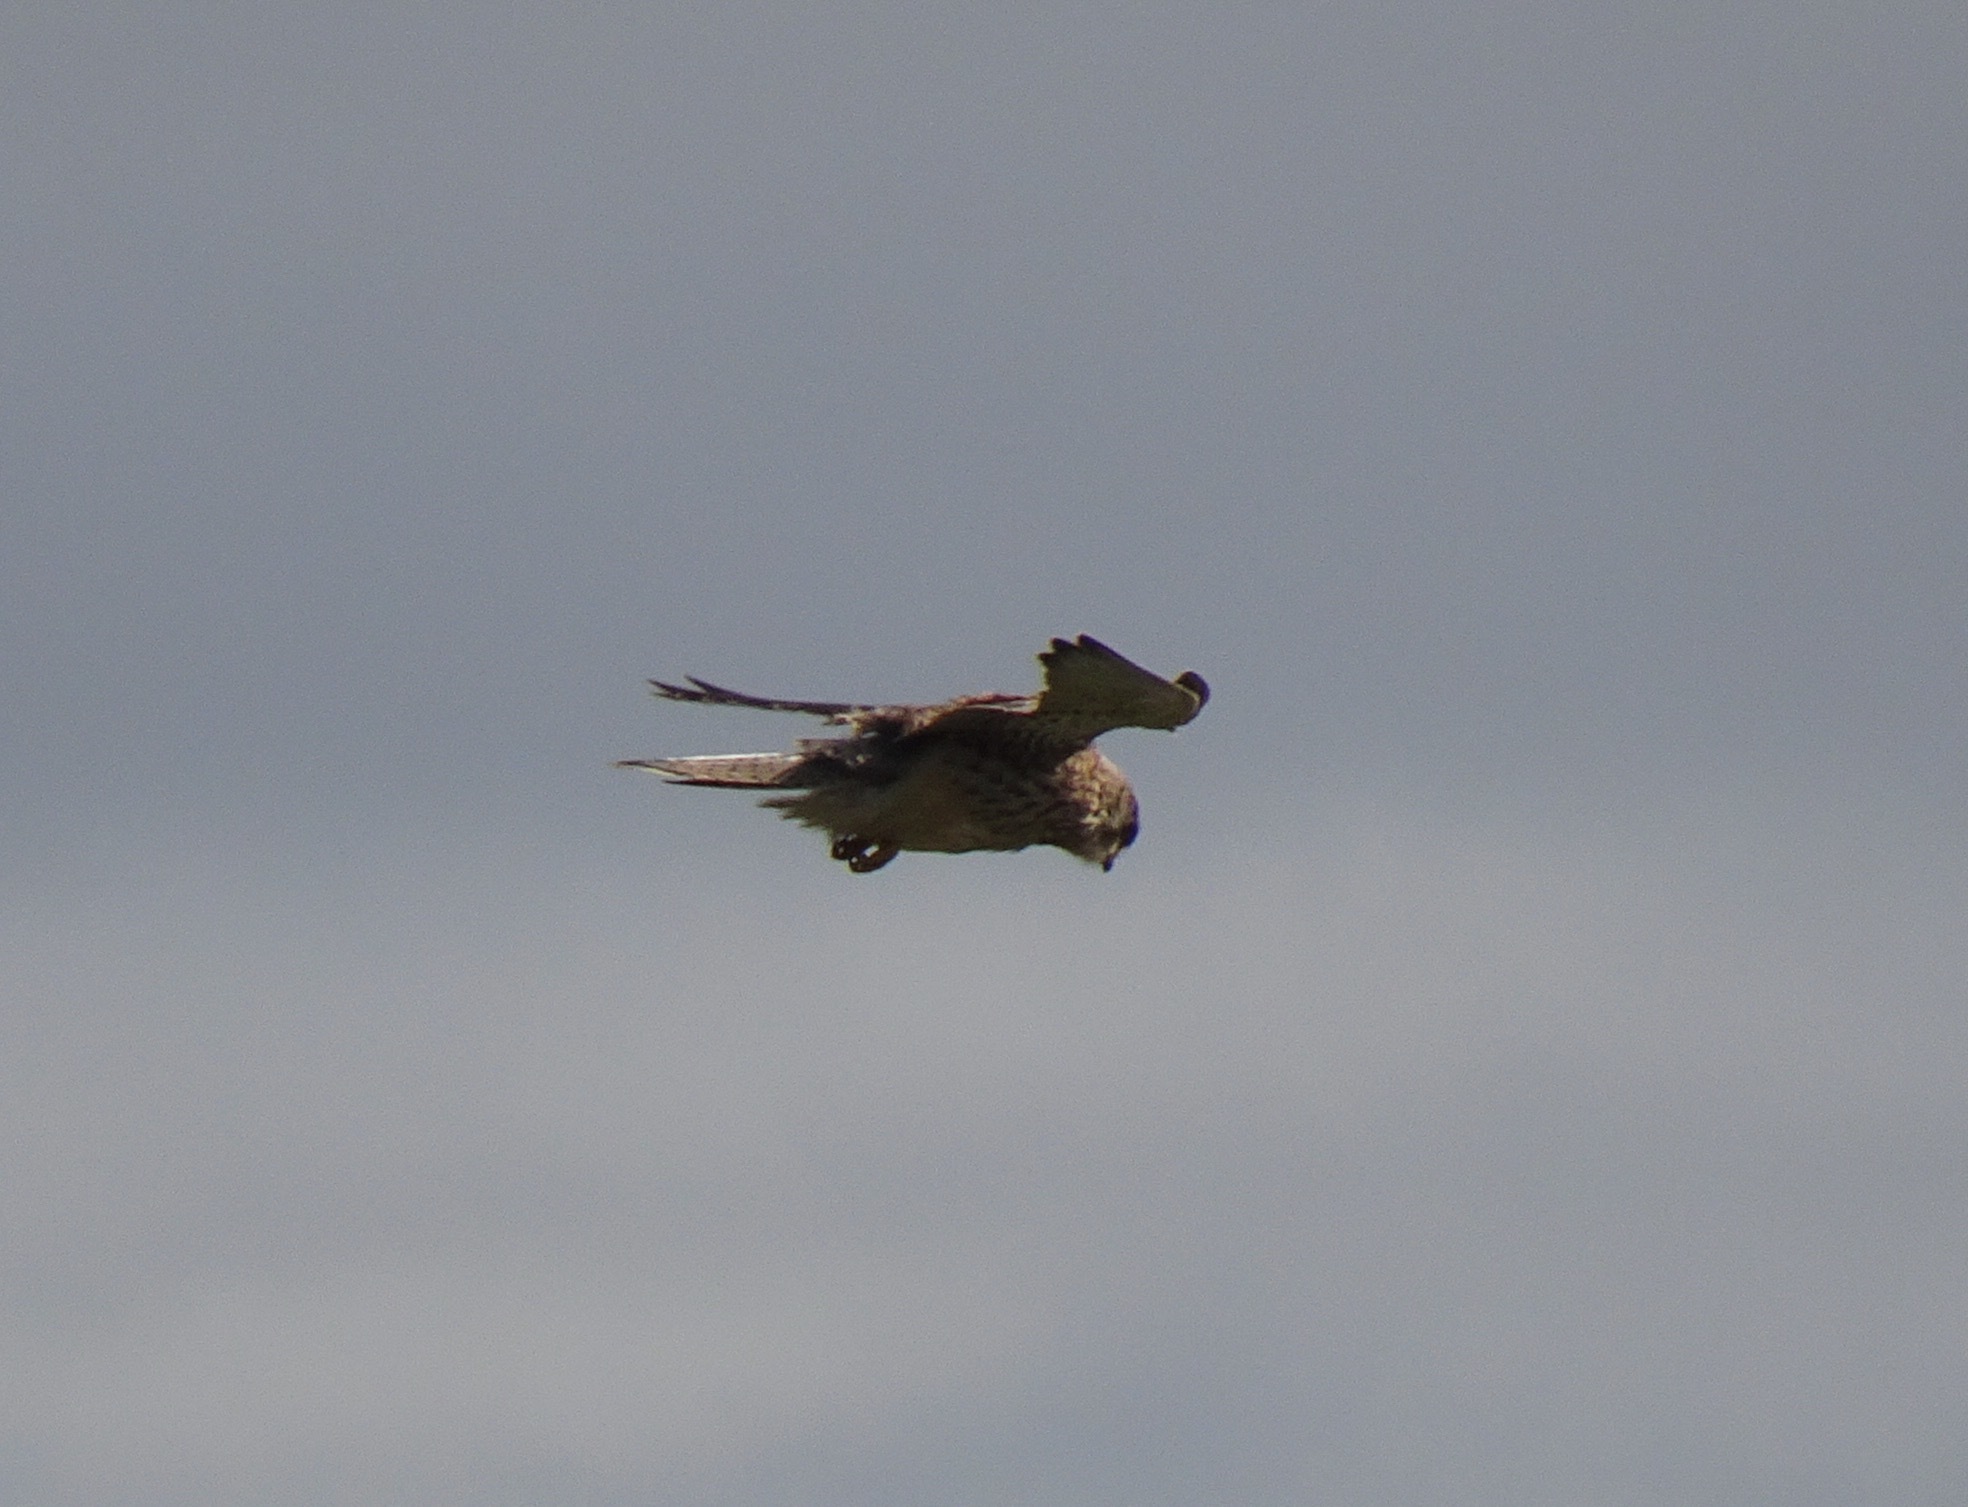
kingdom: Animalia
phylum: Chordata
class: Aves
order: Falconiformes
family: Falconidae
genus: Falco
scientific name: Falco tinnunculus
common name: Common kestrel
